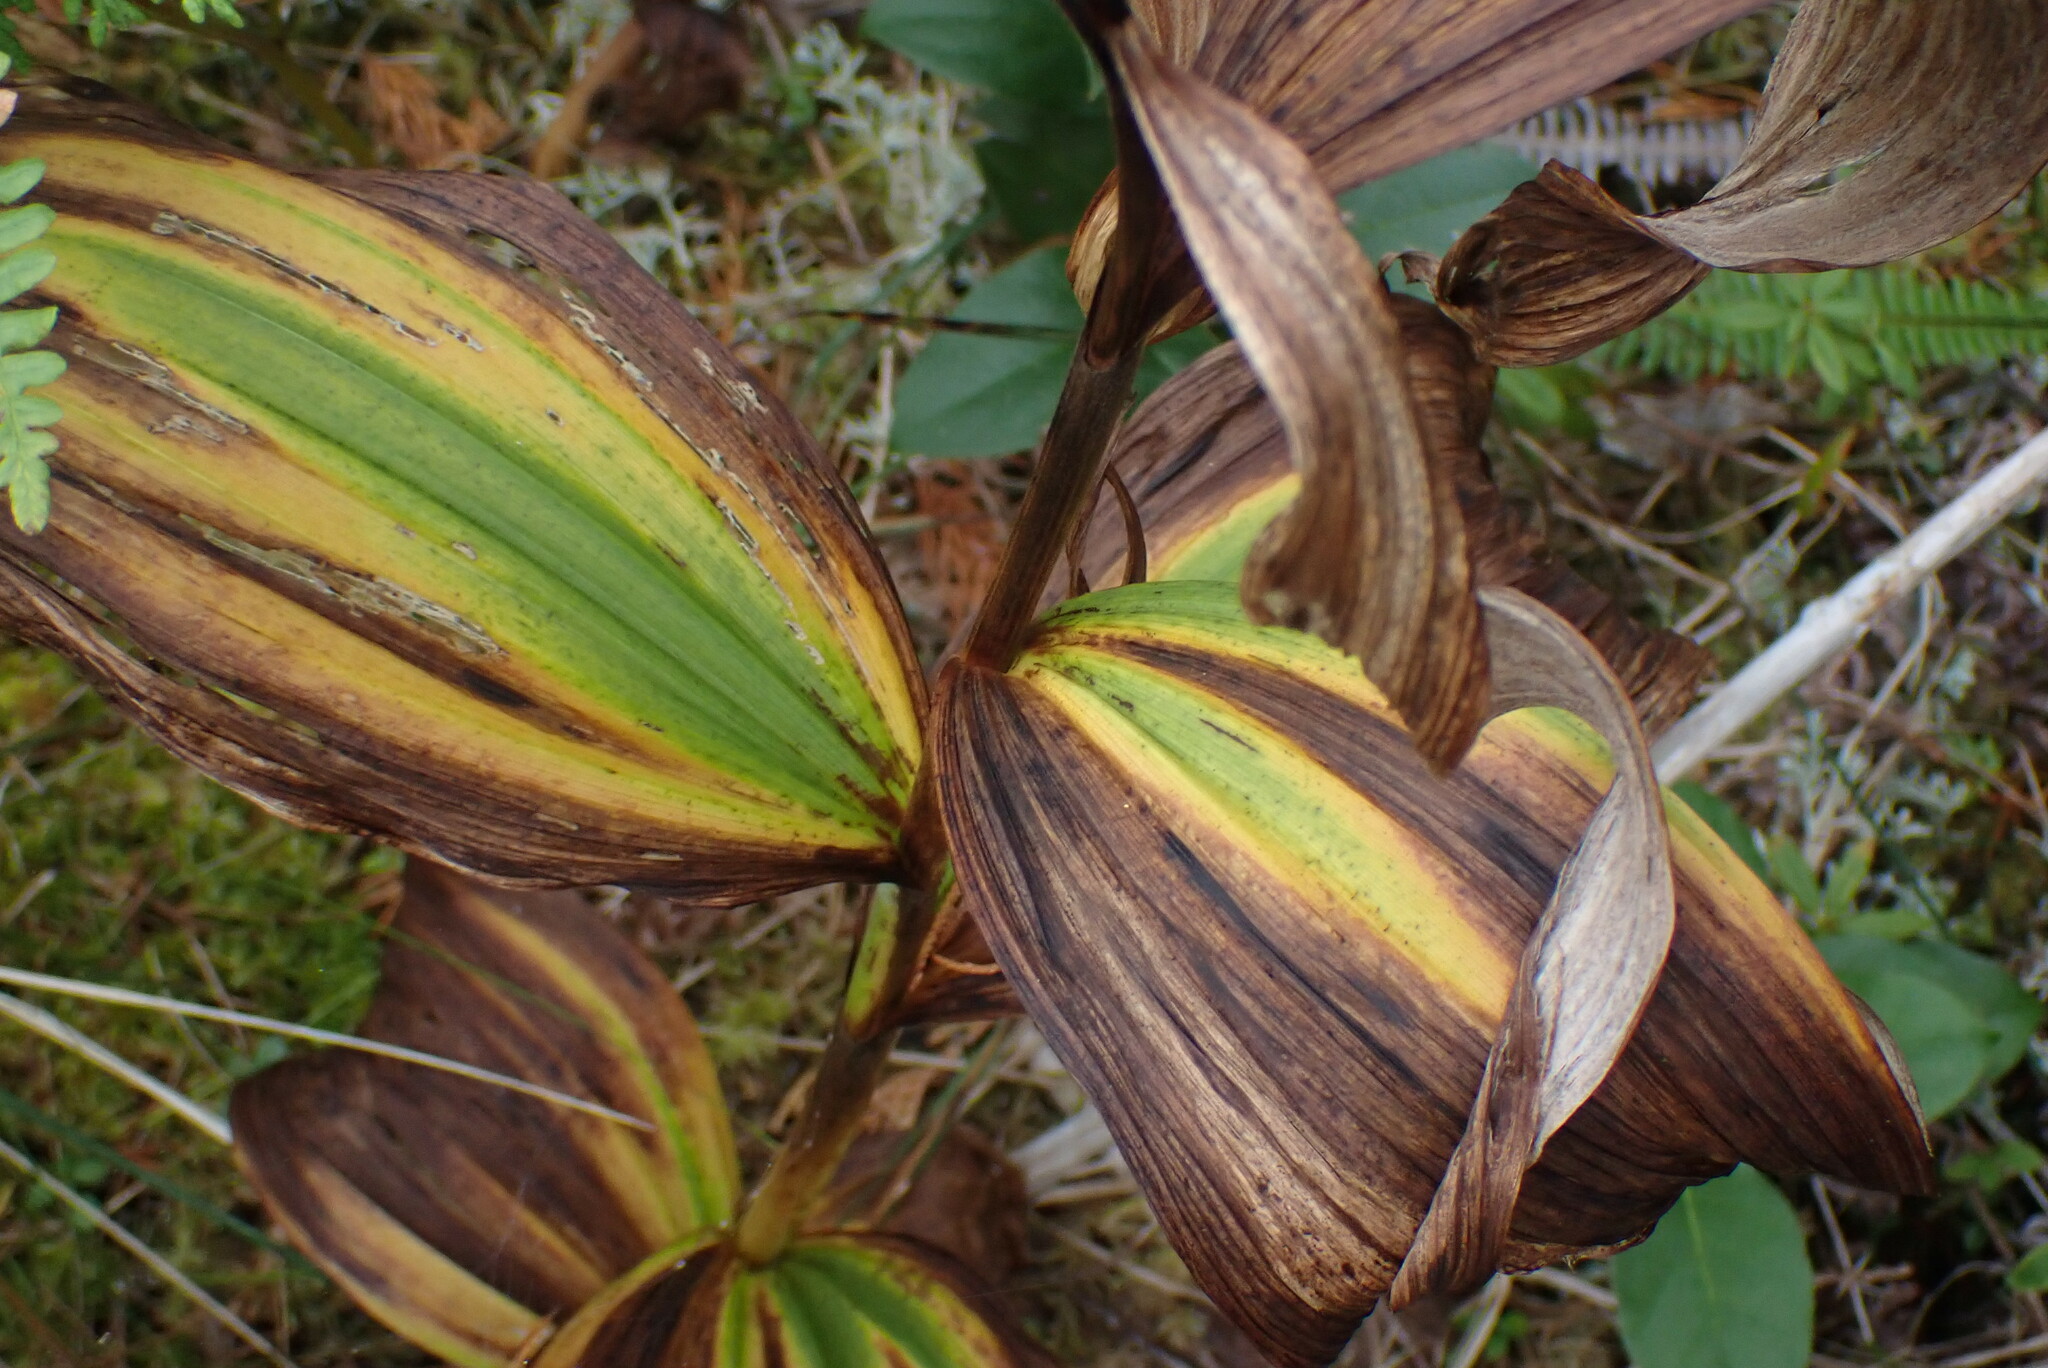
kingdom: Plantae
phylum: Tracheophyta
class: Liliopsida
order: Liliales
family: Melanthiaceae
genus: Veratrum
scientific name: Veratrum viride
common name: American false hellebore
